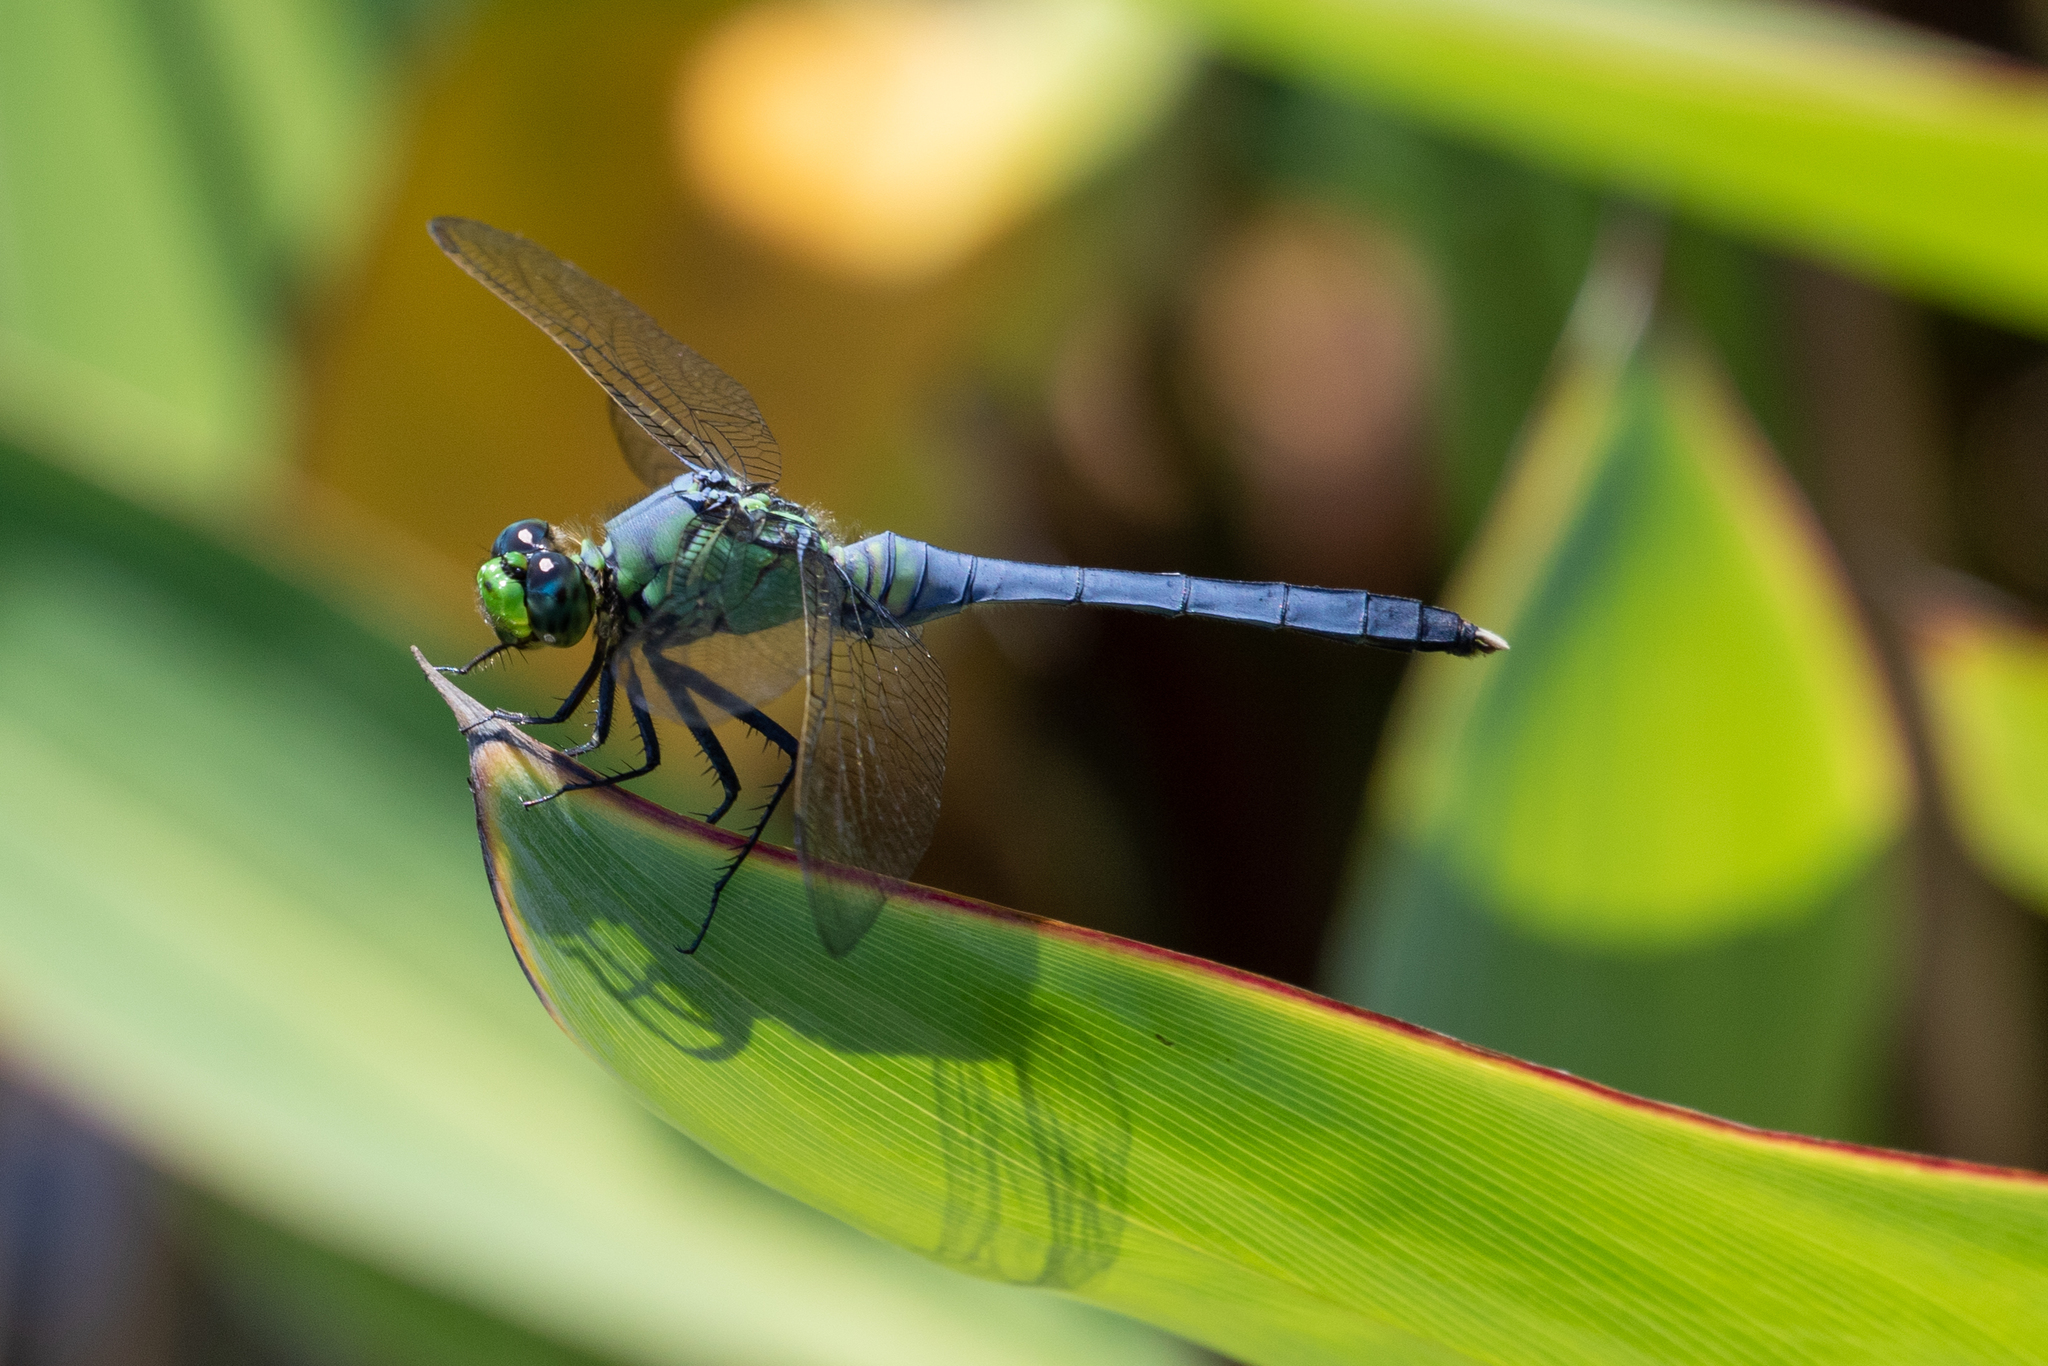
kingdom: Animalia
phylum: Arthropoda
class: Insecta
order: Odonata
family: Libellulidae
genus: Erythemis
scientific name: Erythemis simplicicollis
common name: Eastern pondhawk
